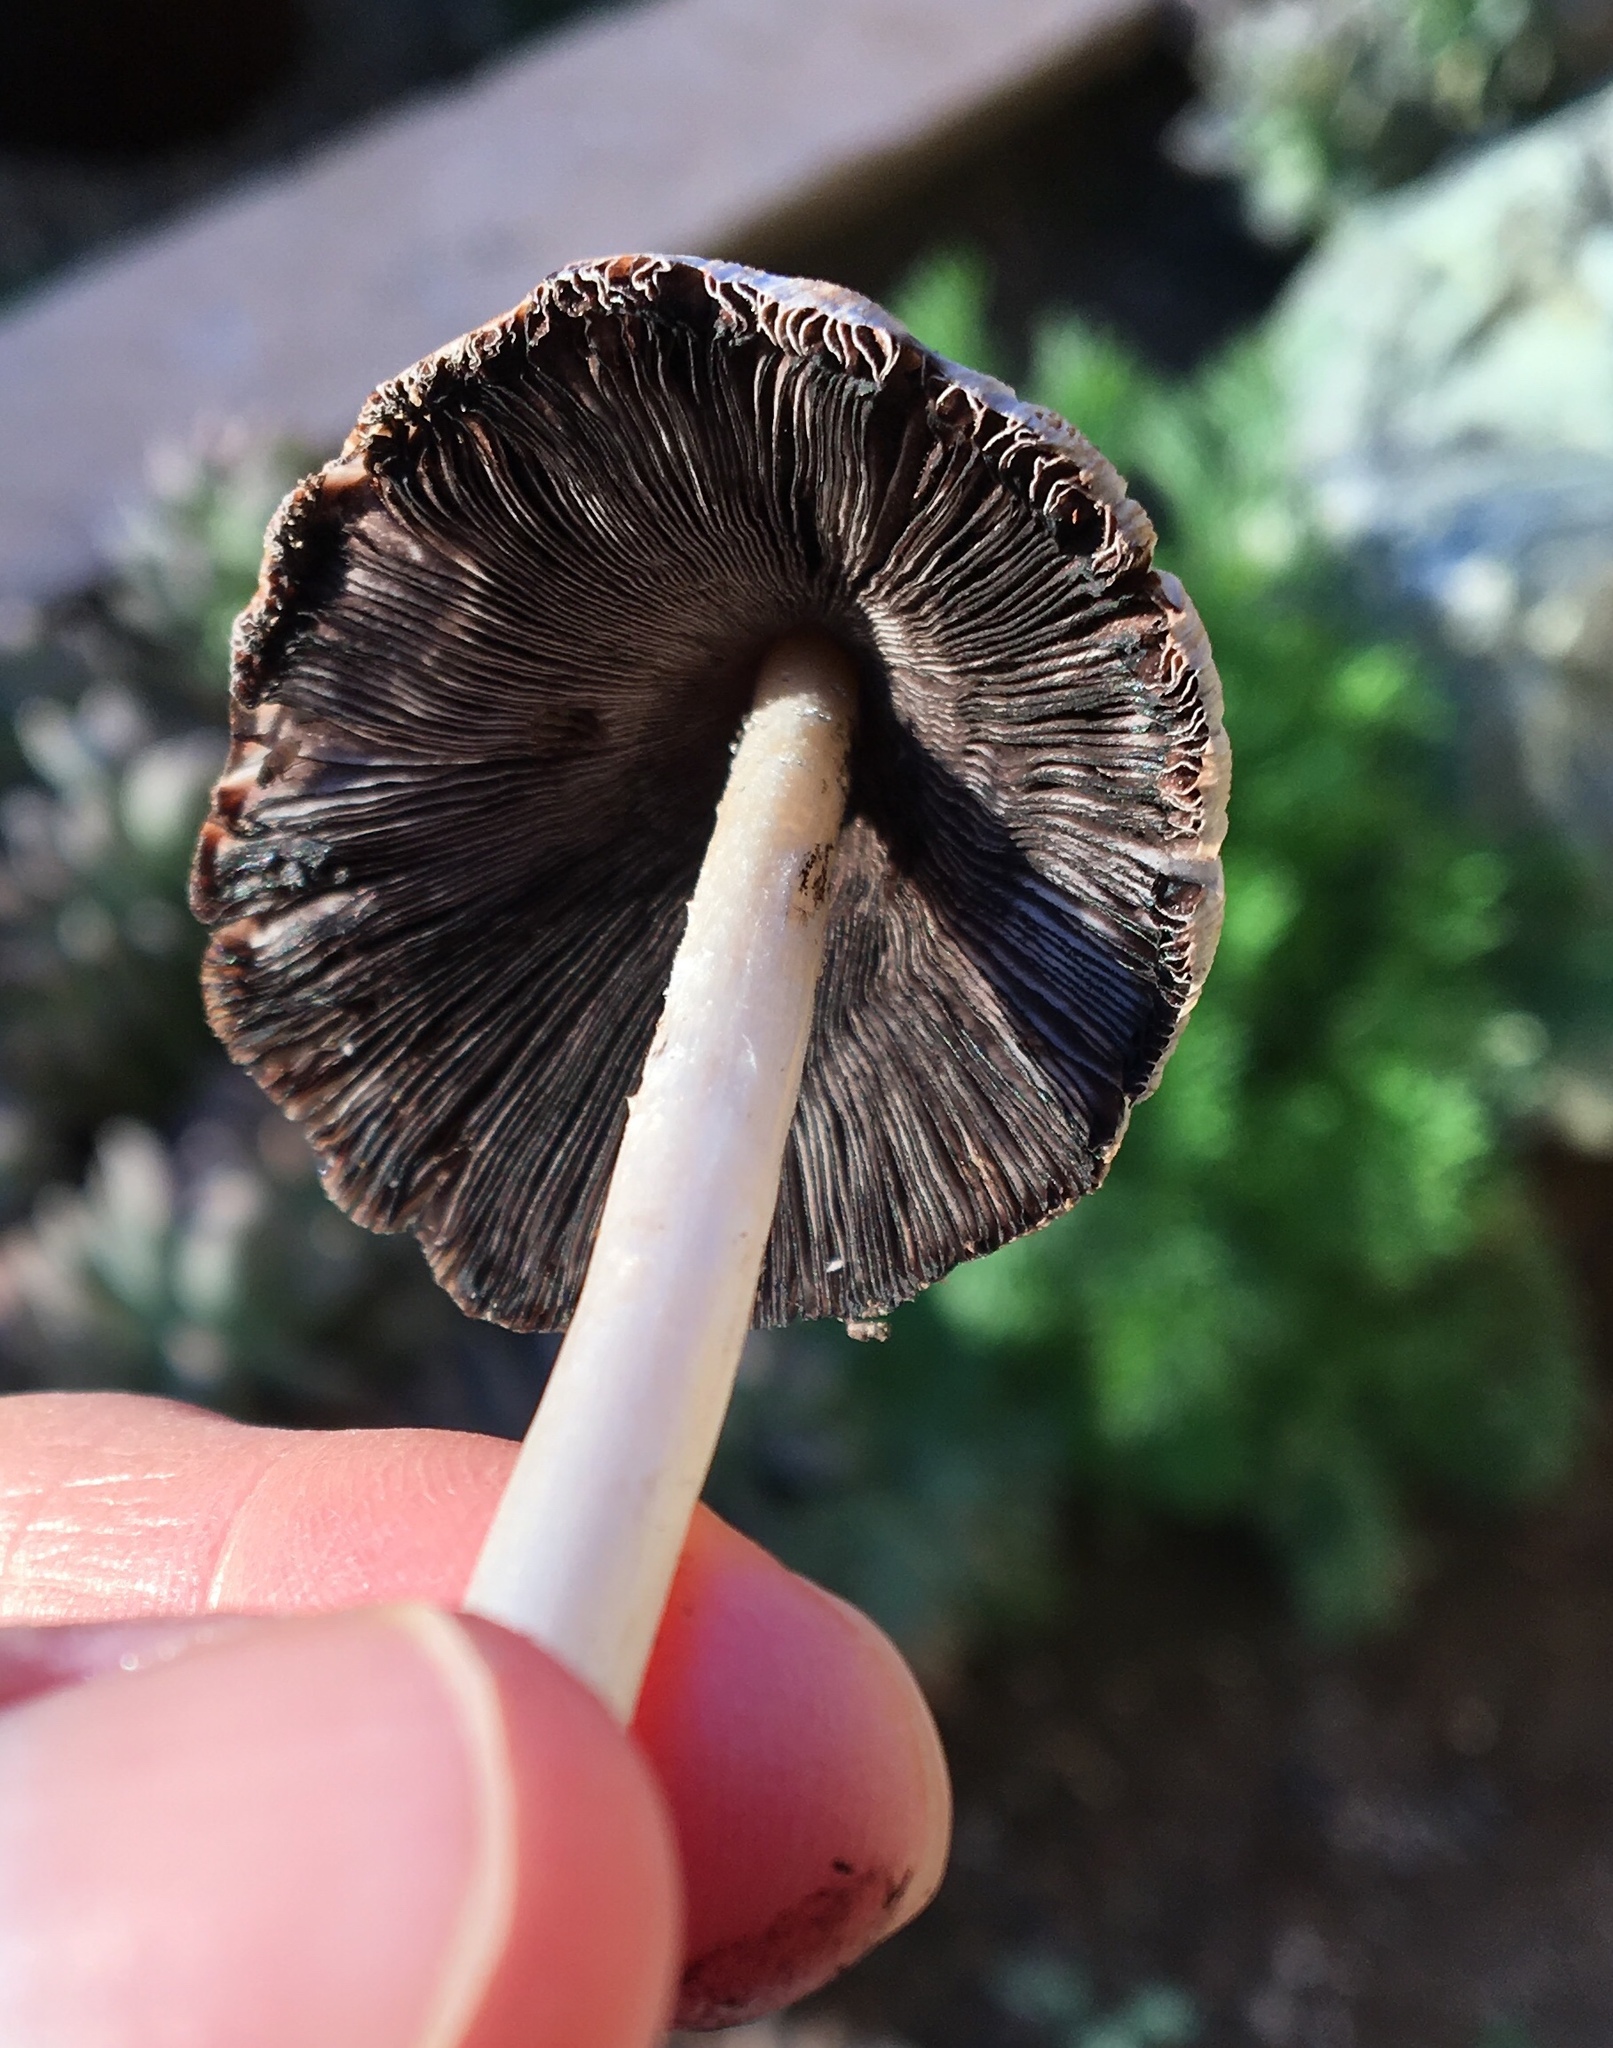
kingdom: Fungi
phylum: Basidiomycota
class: Agaricomycetes
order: Agaricales
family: Psathyrellaceae
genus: Coprinellus
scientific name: Coprinellus micaceus
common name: Glistening ink-cap
